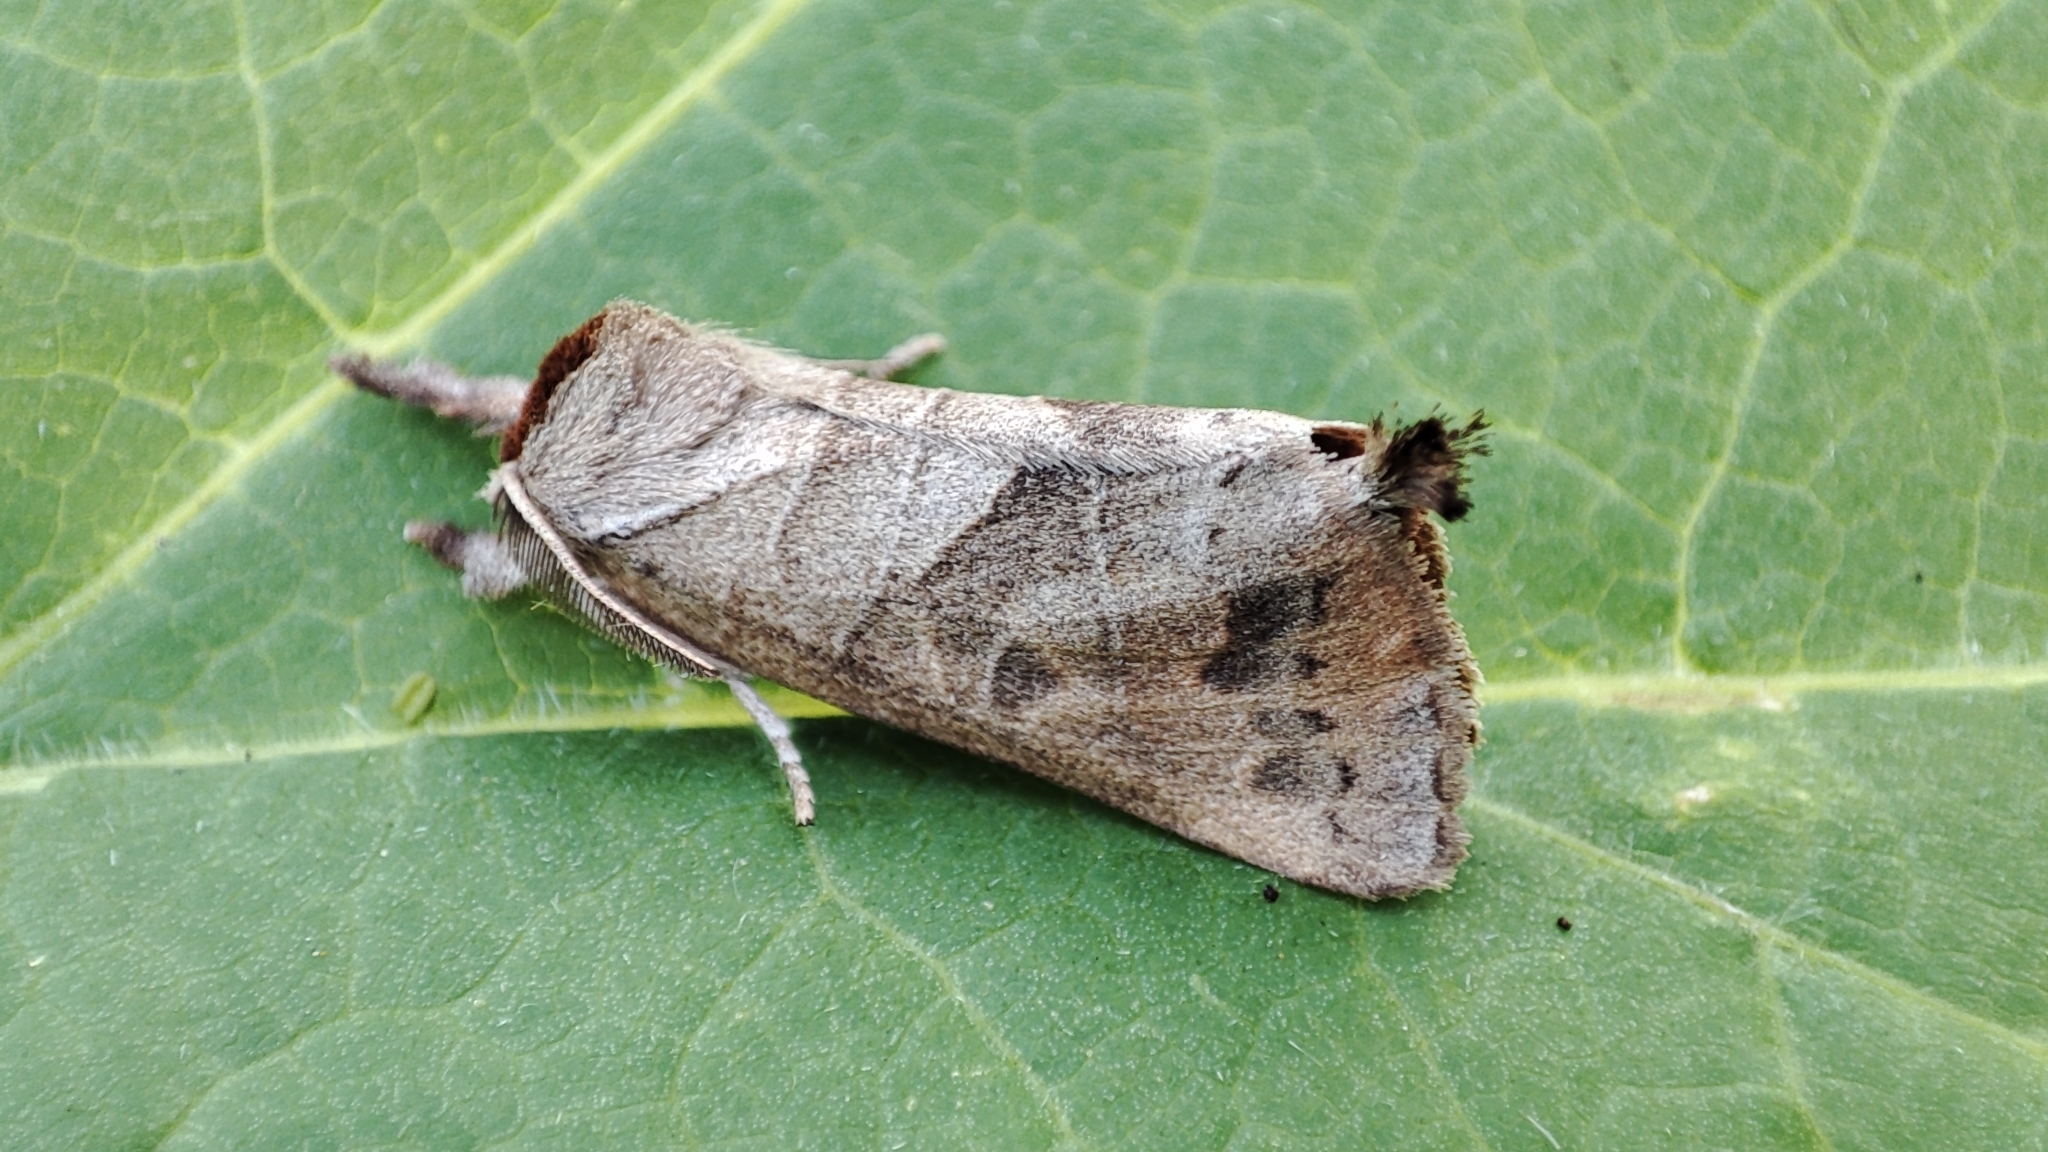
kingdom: Animalia
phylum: Arthropoda
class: Insecta
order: Lepidoptera
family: Notodontidae
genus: Clostera
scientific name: Clostera anastomosis
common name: Poplar tip moth
